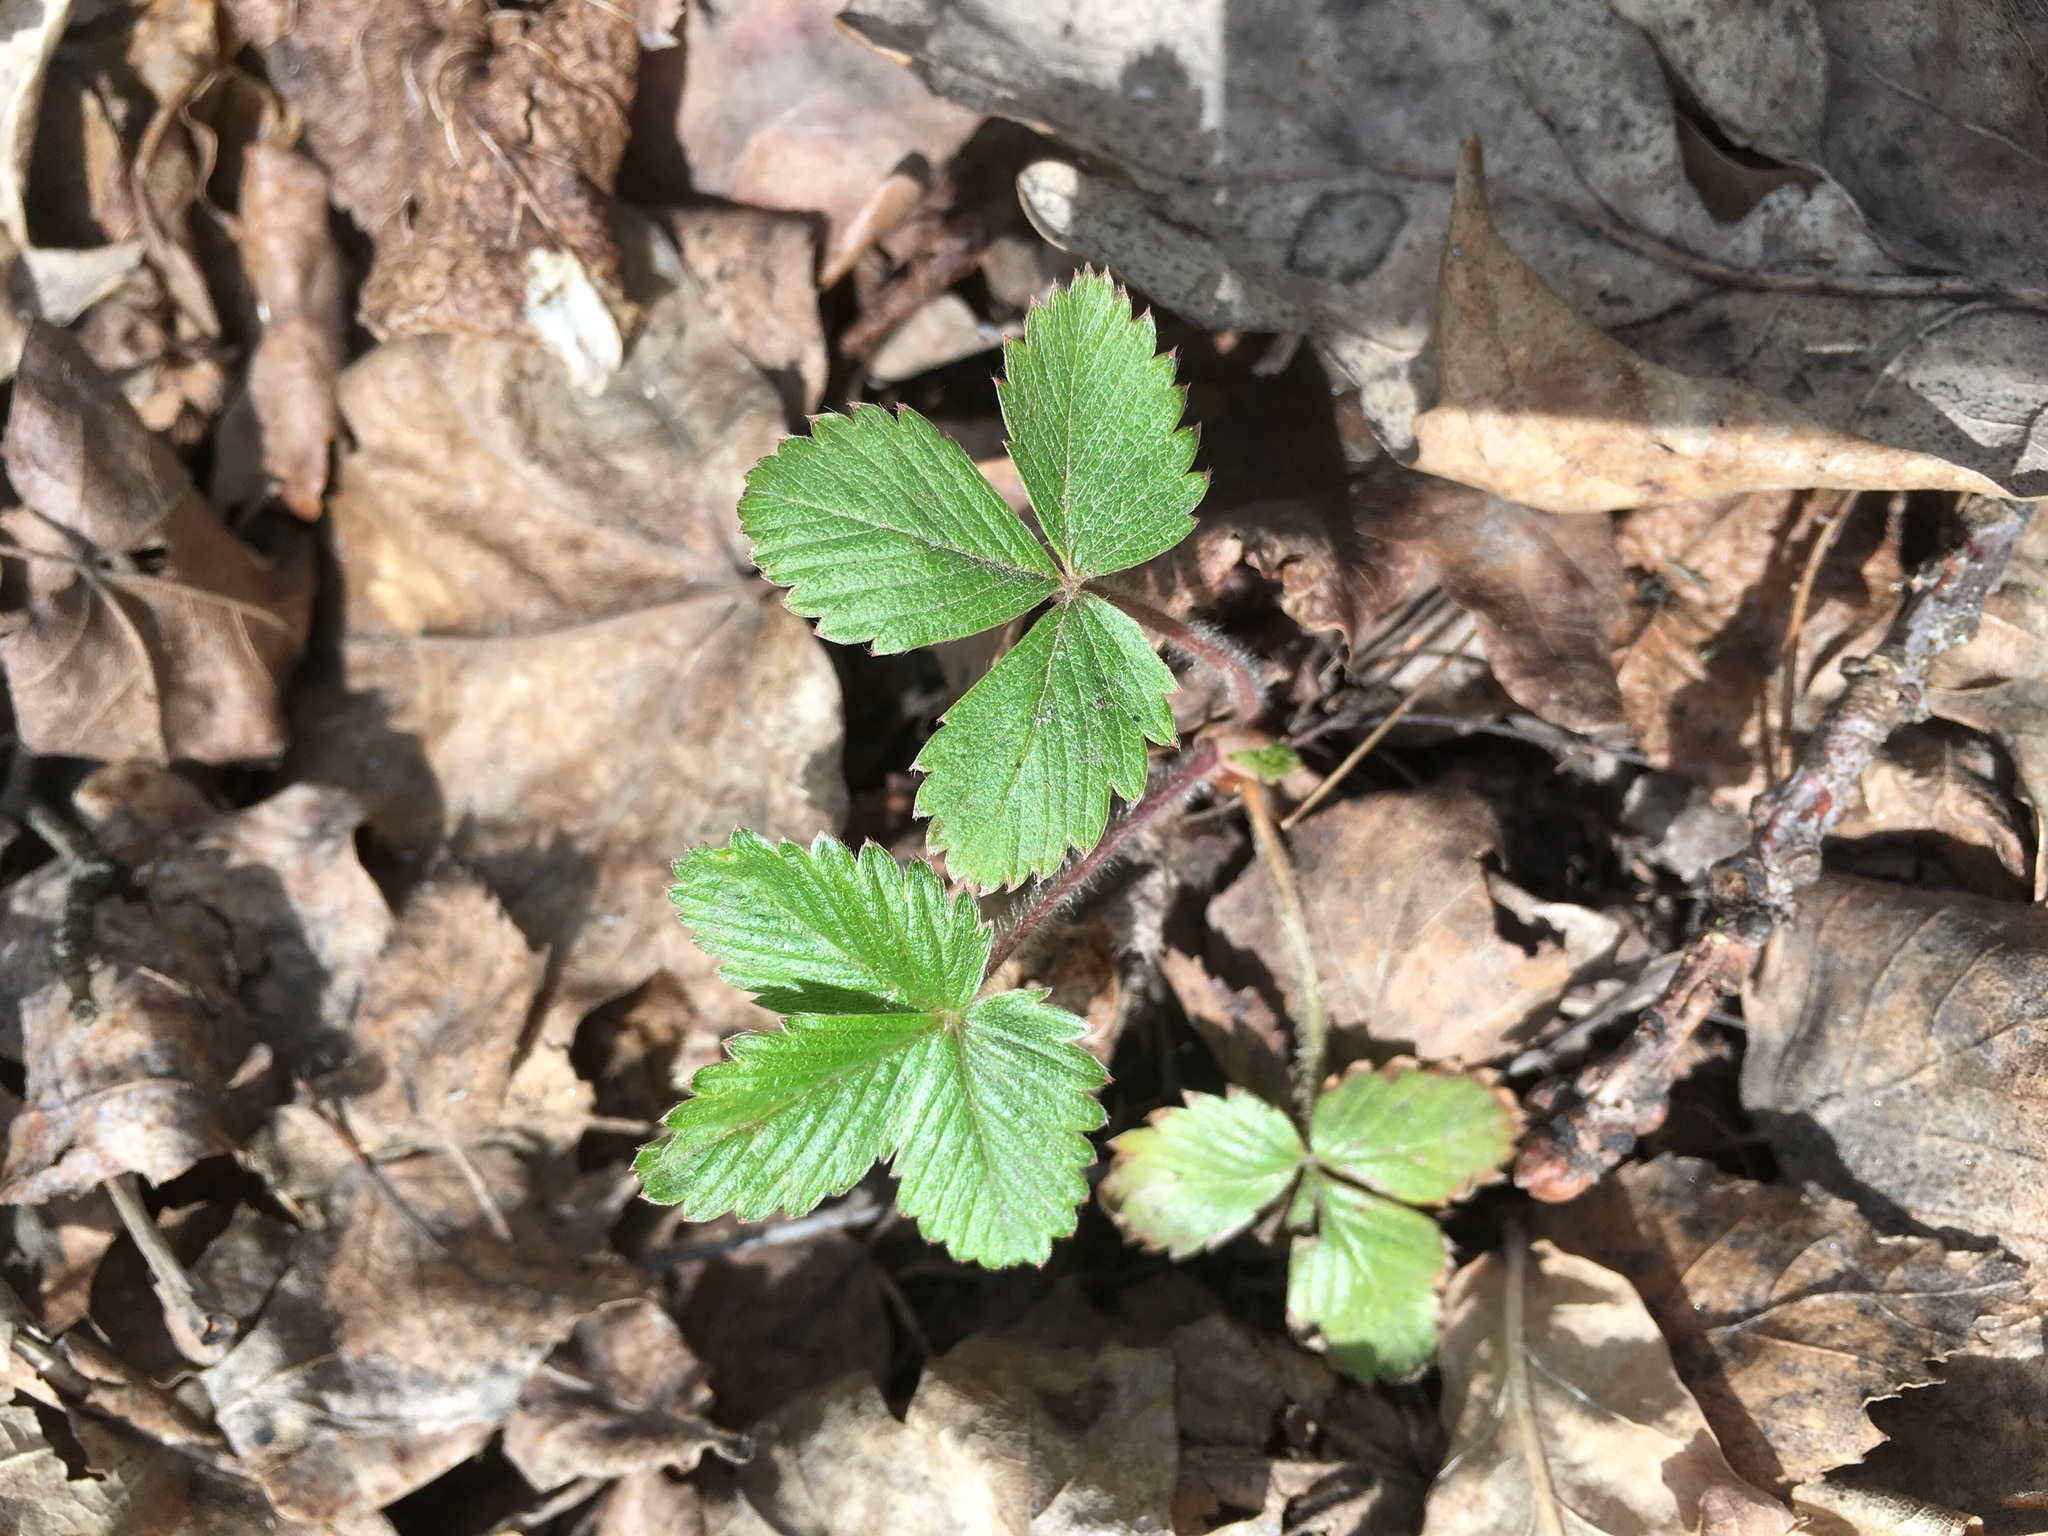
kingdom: Plantae
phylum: Tracheophyta
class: Magnoliopsida
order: Rosales
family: Rosaceae
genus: Fragaria
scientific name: Fragaria vesca
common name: Wild strawberry
